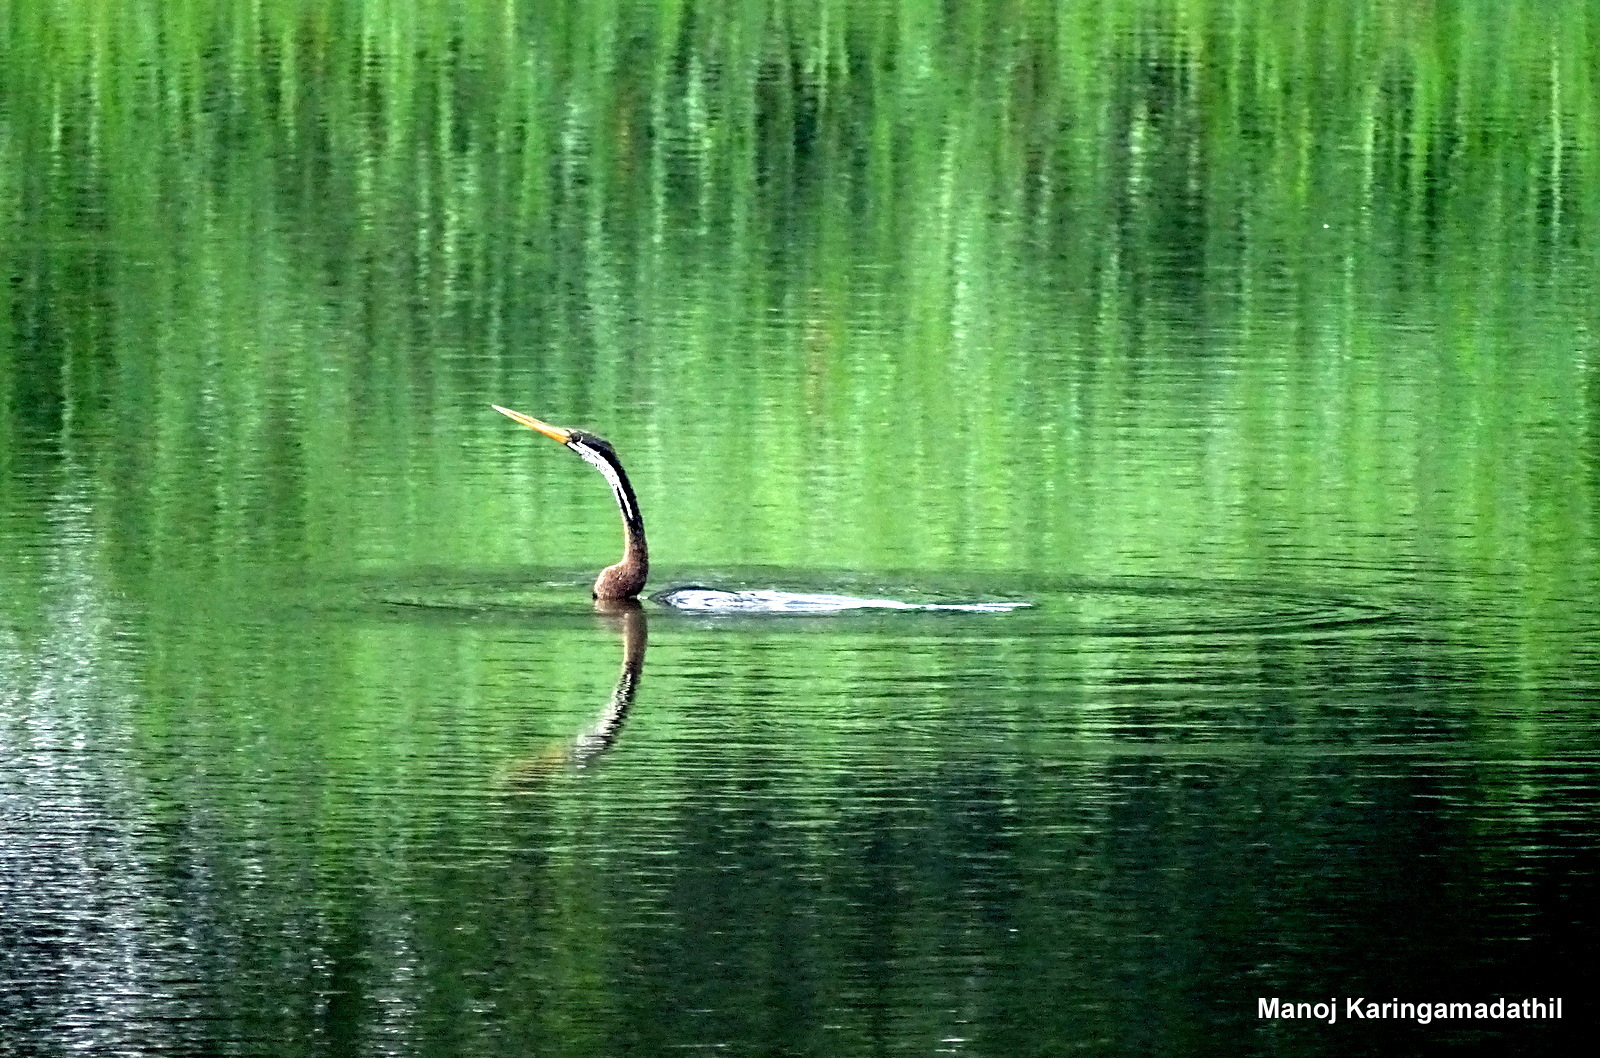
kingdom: Animalia
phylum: Chordata
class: Aves
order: Suliformes
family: Anhingidae
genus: Anhinga
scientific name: Anhinga melanogaster
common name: Oriental darter
